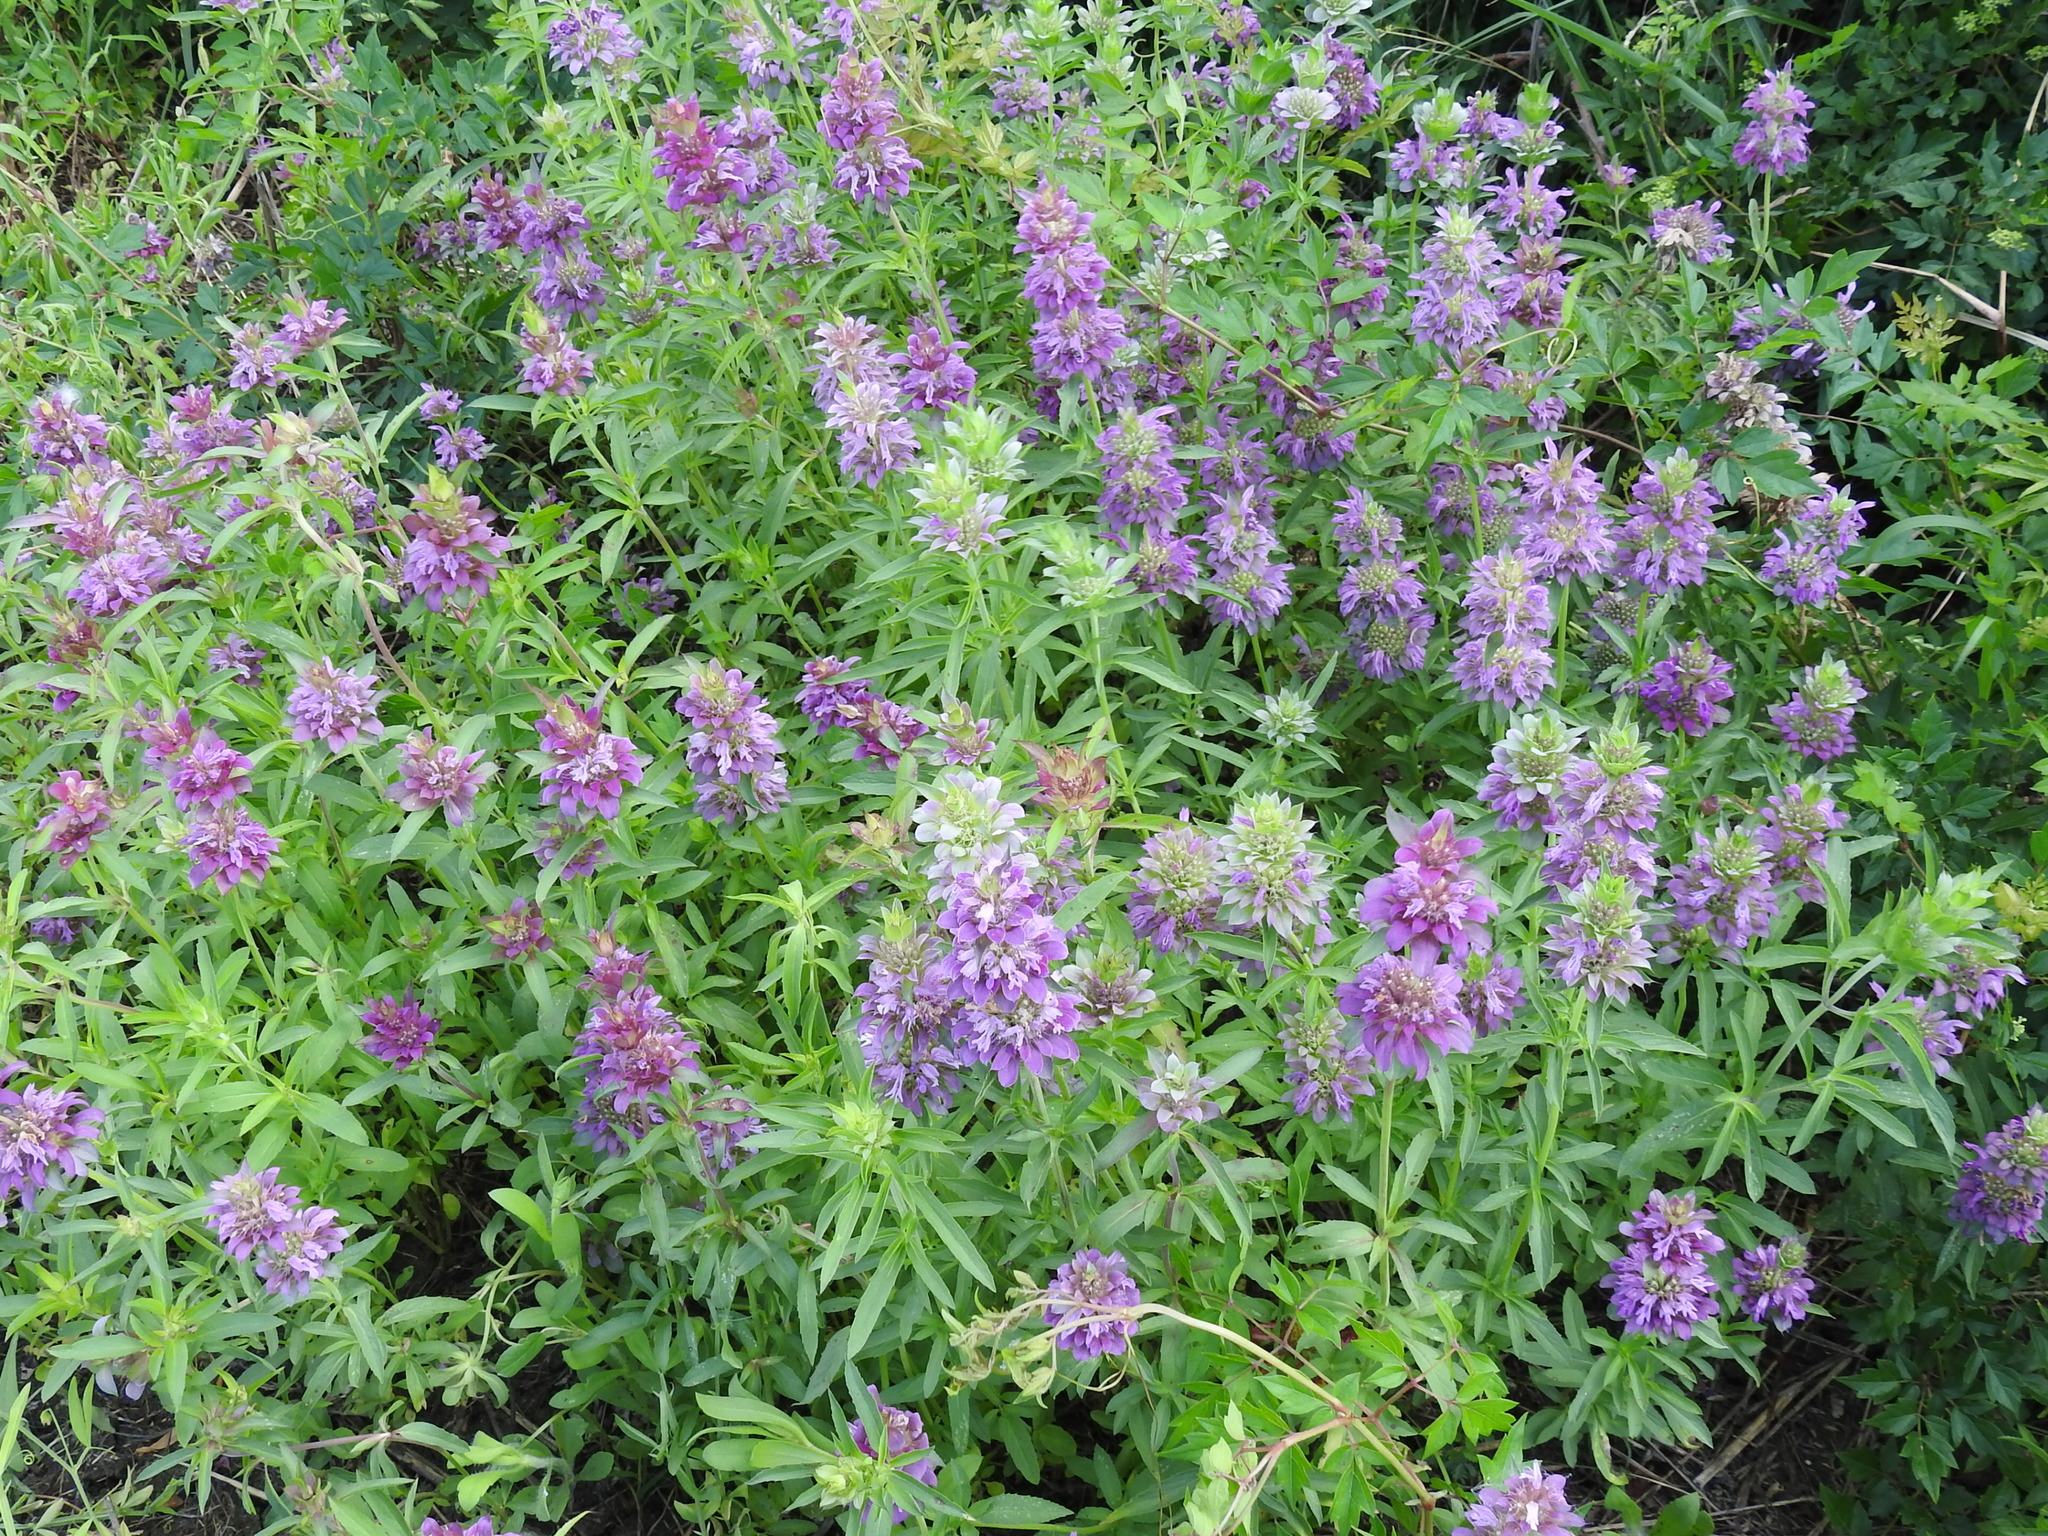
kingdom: Plantae
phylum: Tracheophyta
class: Magnoliopsida
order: Lamiales
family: Lamiaceae
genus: Monarda
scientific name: Monarda citriodora
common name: Lemon beebalm
